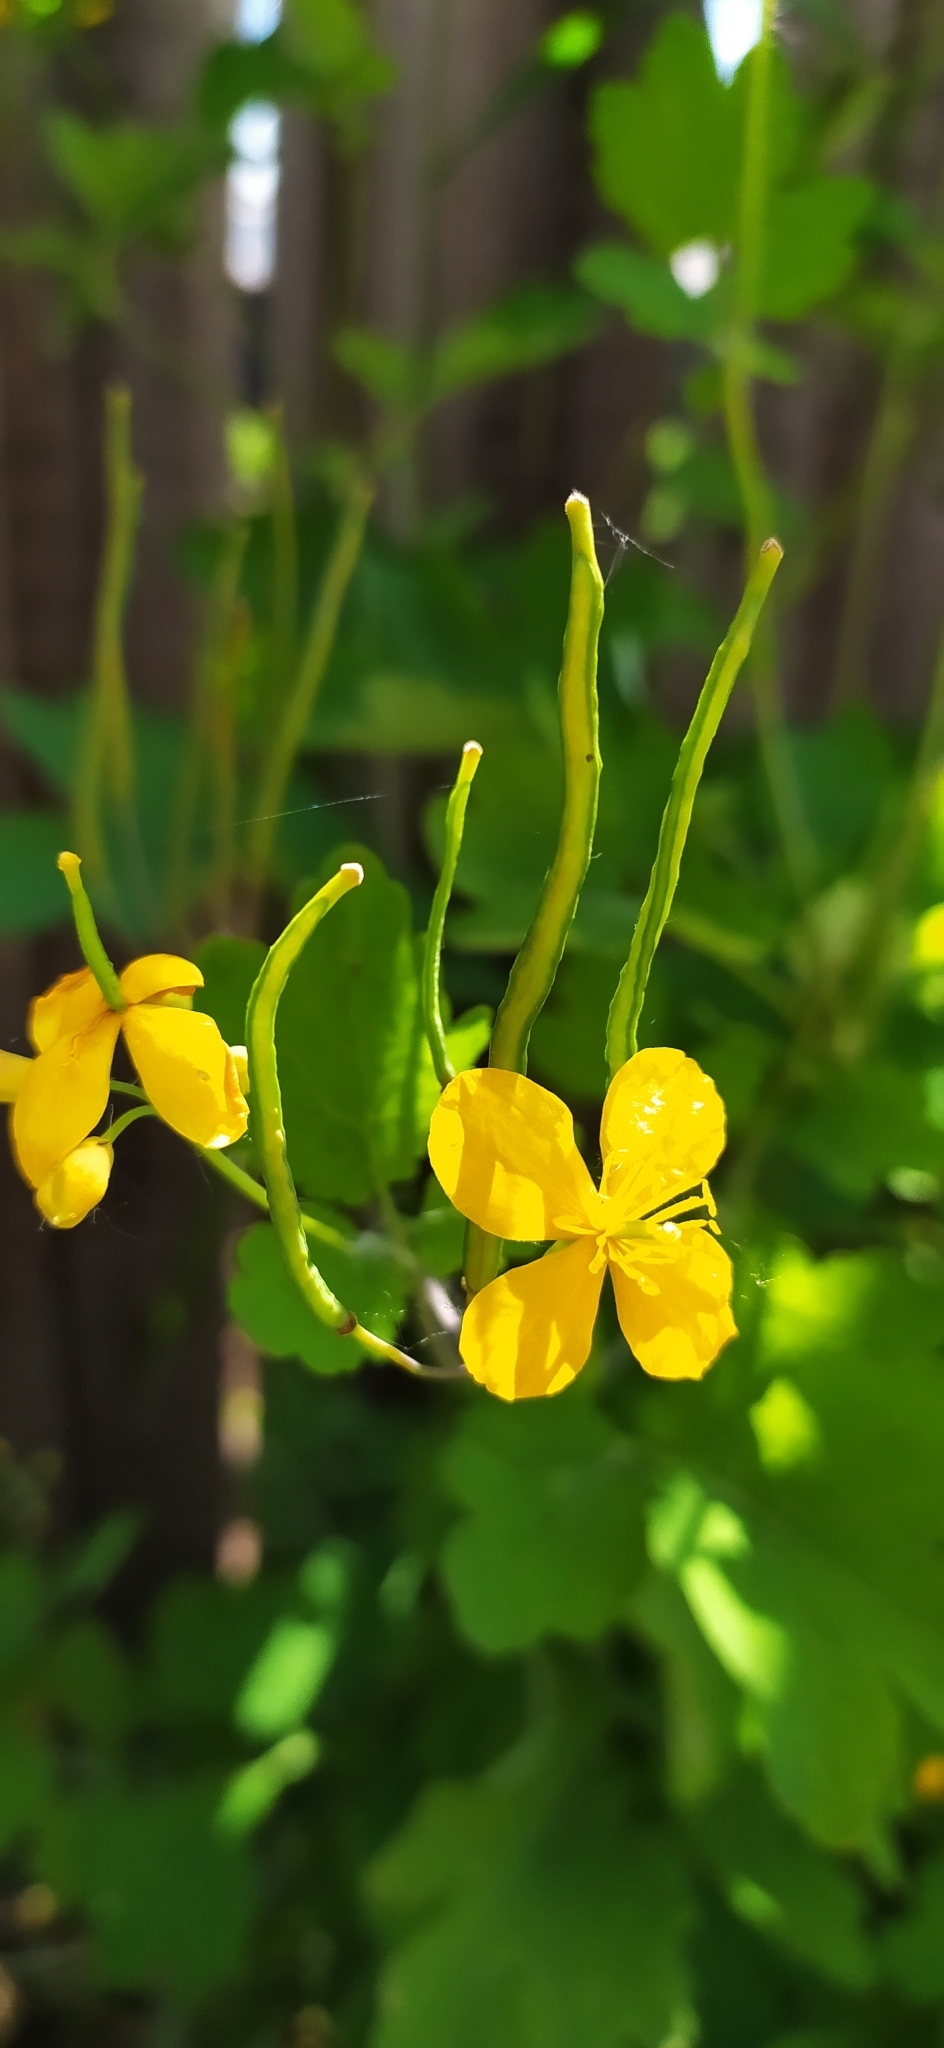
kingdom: Plantae
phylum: Tracheophyta
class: Magnoliopsida
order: Ranunculales
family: Papaveraceae
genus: Chelidonium
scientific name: Chelidonium majus
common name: Greater celandine
